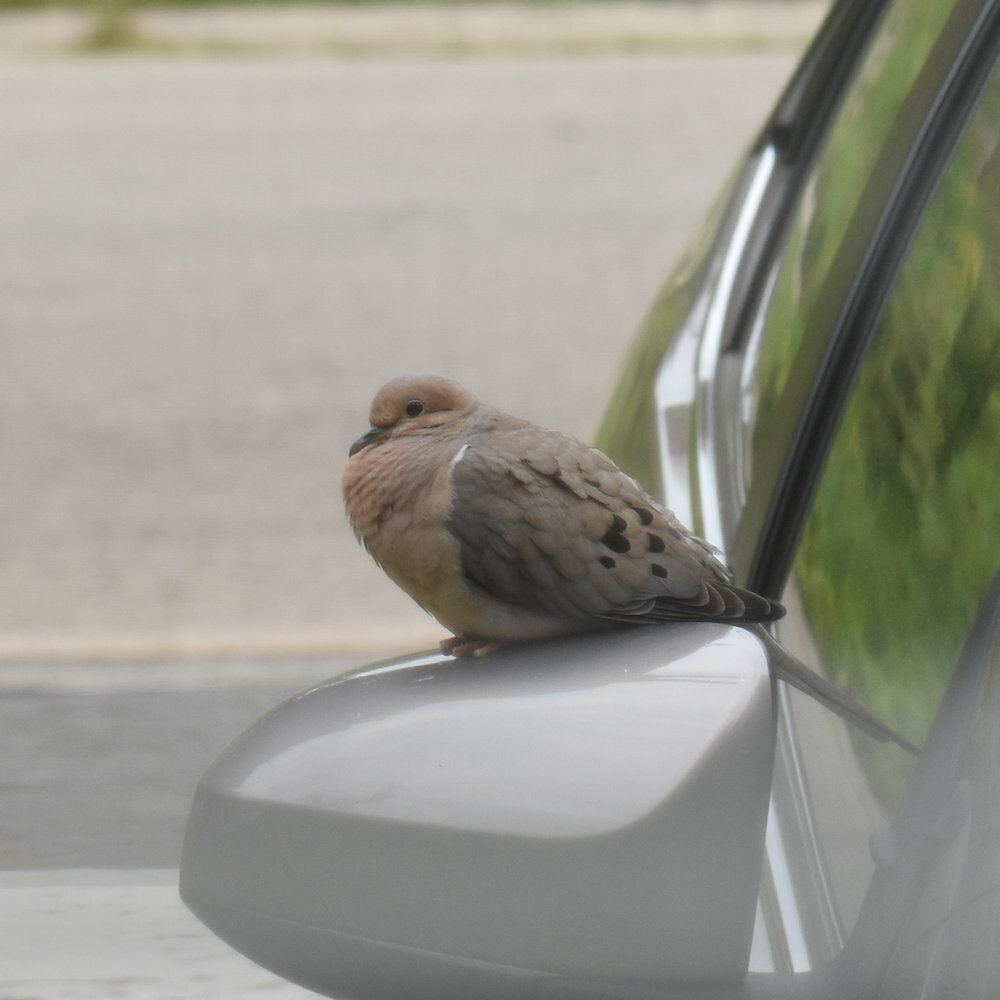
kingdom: Animalia
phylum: Chordata
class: Aves
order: Columbiformes
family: Columbidae
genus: Zenaida
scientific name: Zenaida macroura
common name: Mourning dove
